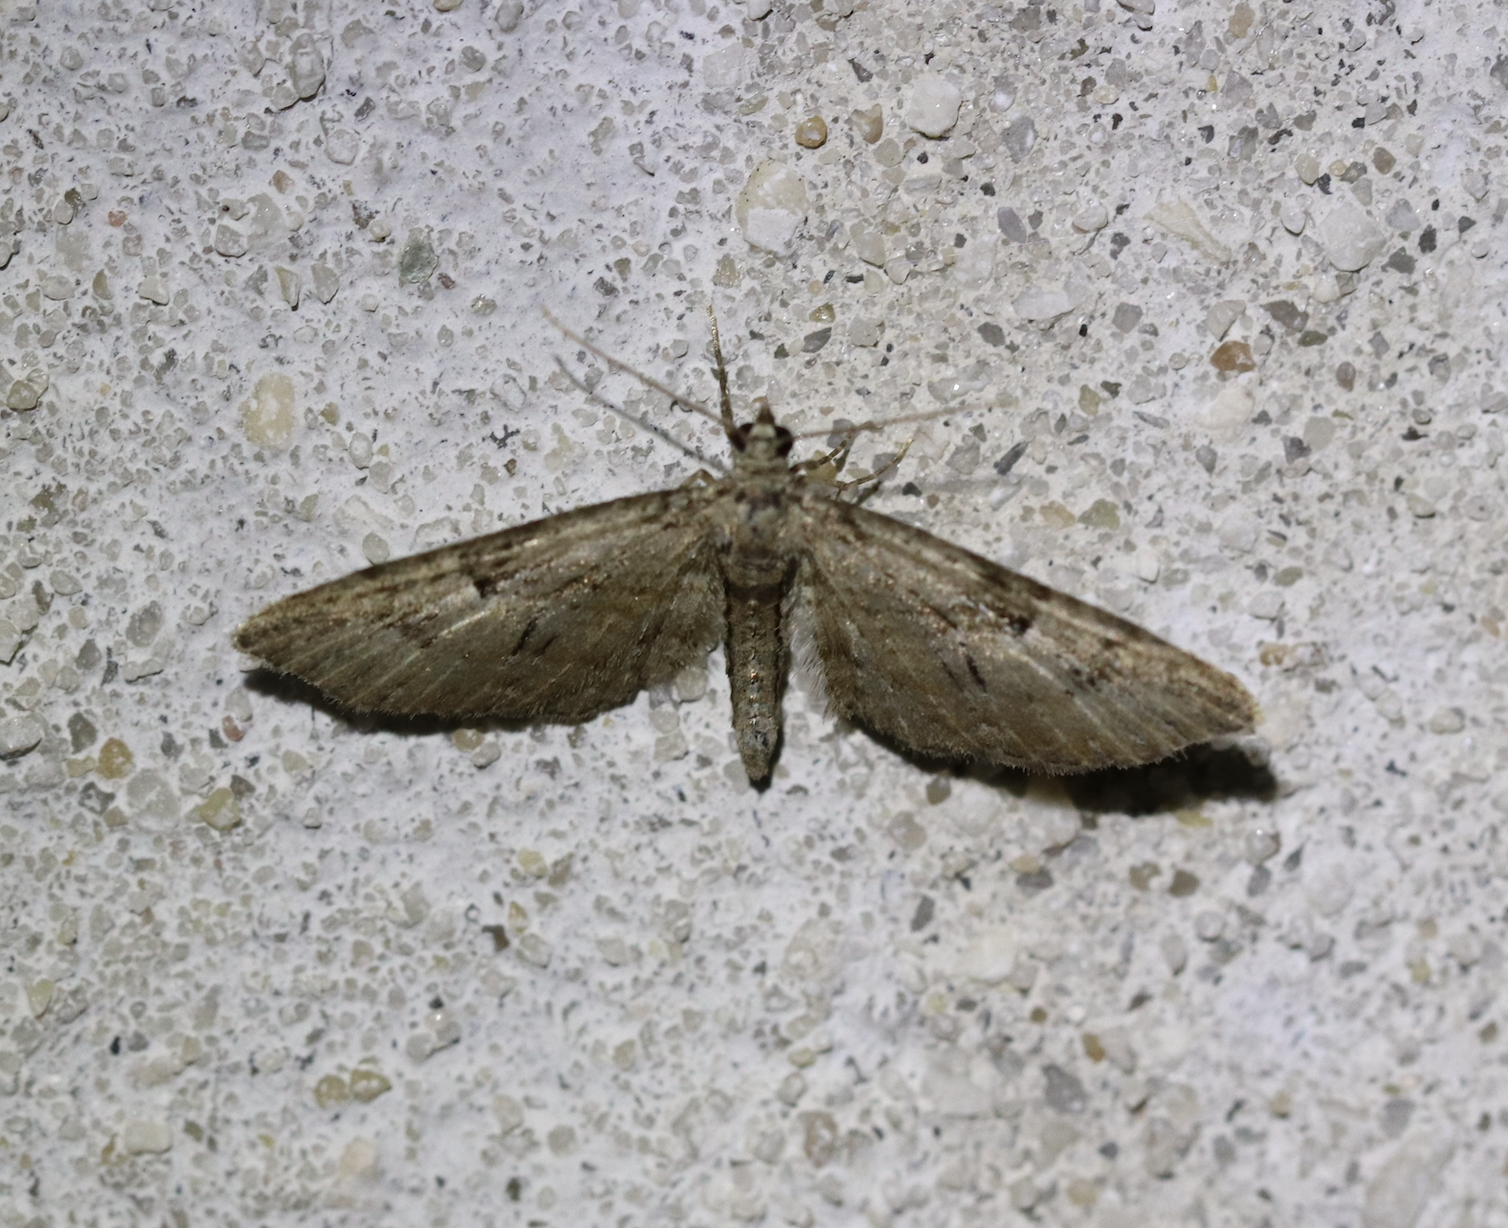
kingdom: Animalia
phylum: Arthropoda
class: Insecta
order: Lepidoptera
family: Geometridae
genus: Eupithecia
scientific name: Eupithecia pusillata
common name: Juniper pug
